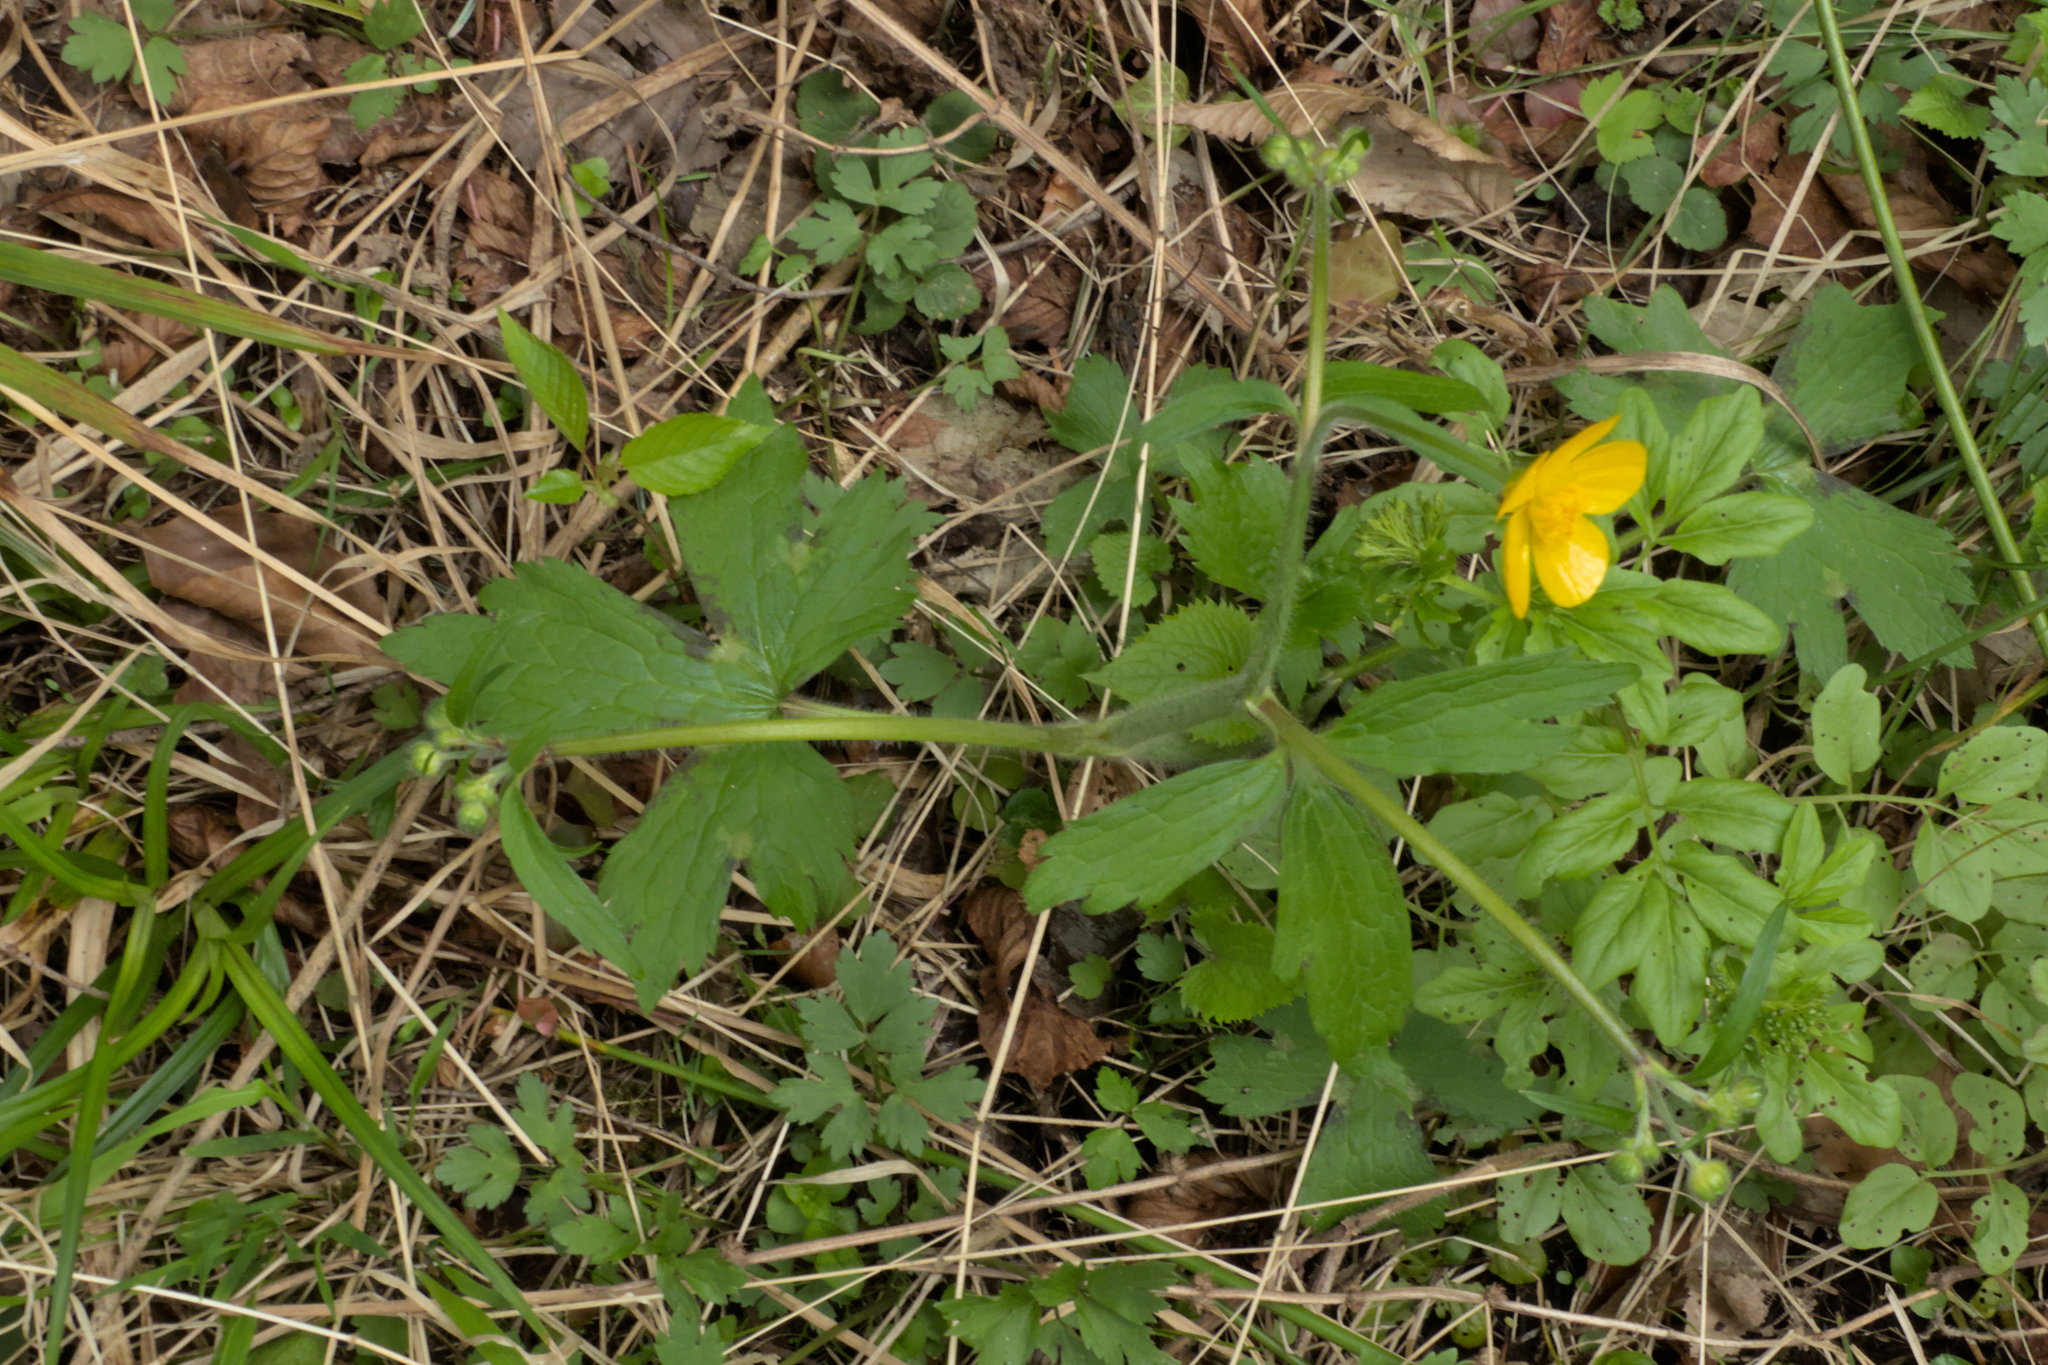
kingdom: Plantae
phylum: Tracheophyta
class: Magnoliopsida
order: Ranunculales
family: Ranunculaceae
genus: Ranunculus
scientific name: Ranunculus lanuginosus
